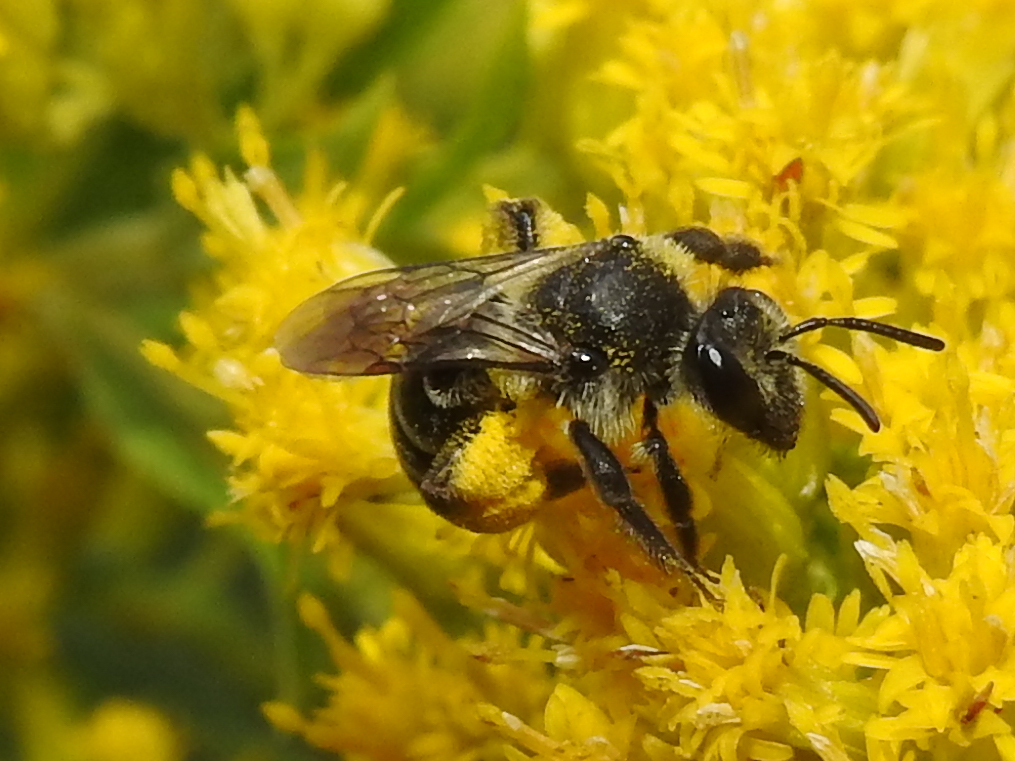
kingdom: Animalia
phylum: Arthropoda
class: Insecta
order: Hymenoptera
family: Andrenidae
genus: Andrena
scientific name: Andrena asteris
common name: Aster mining bee
